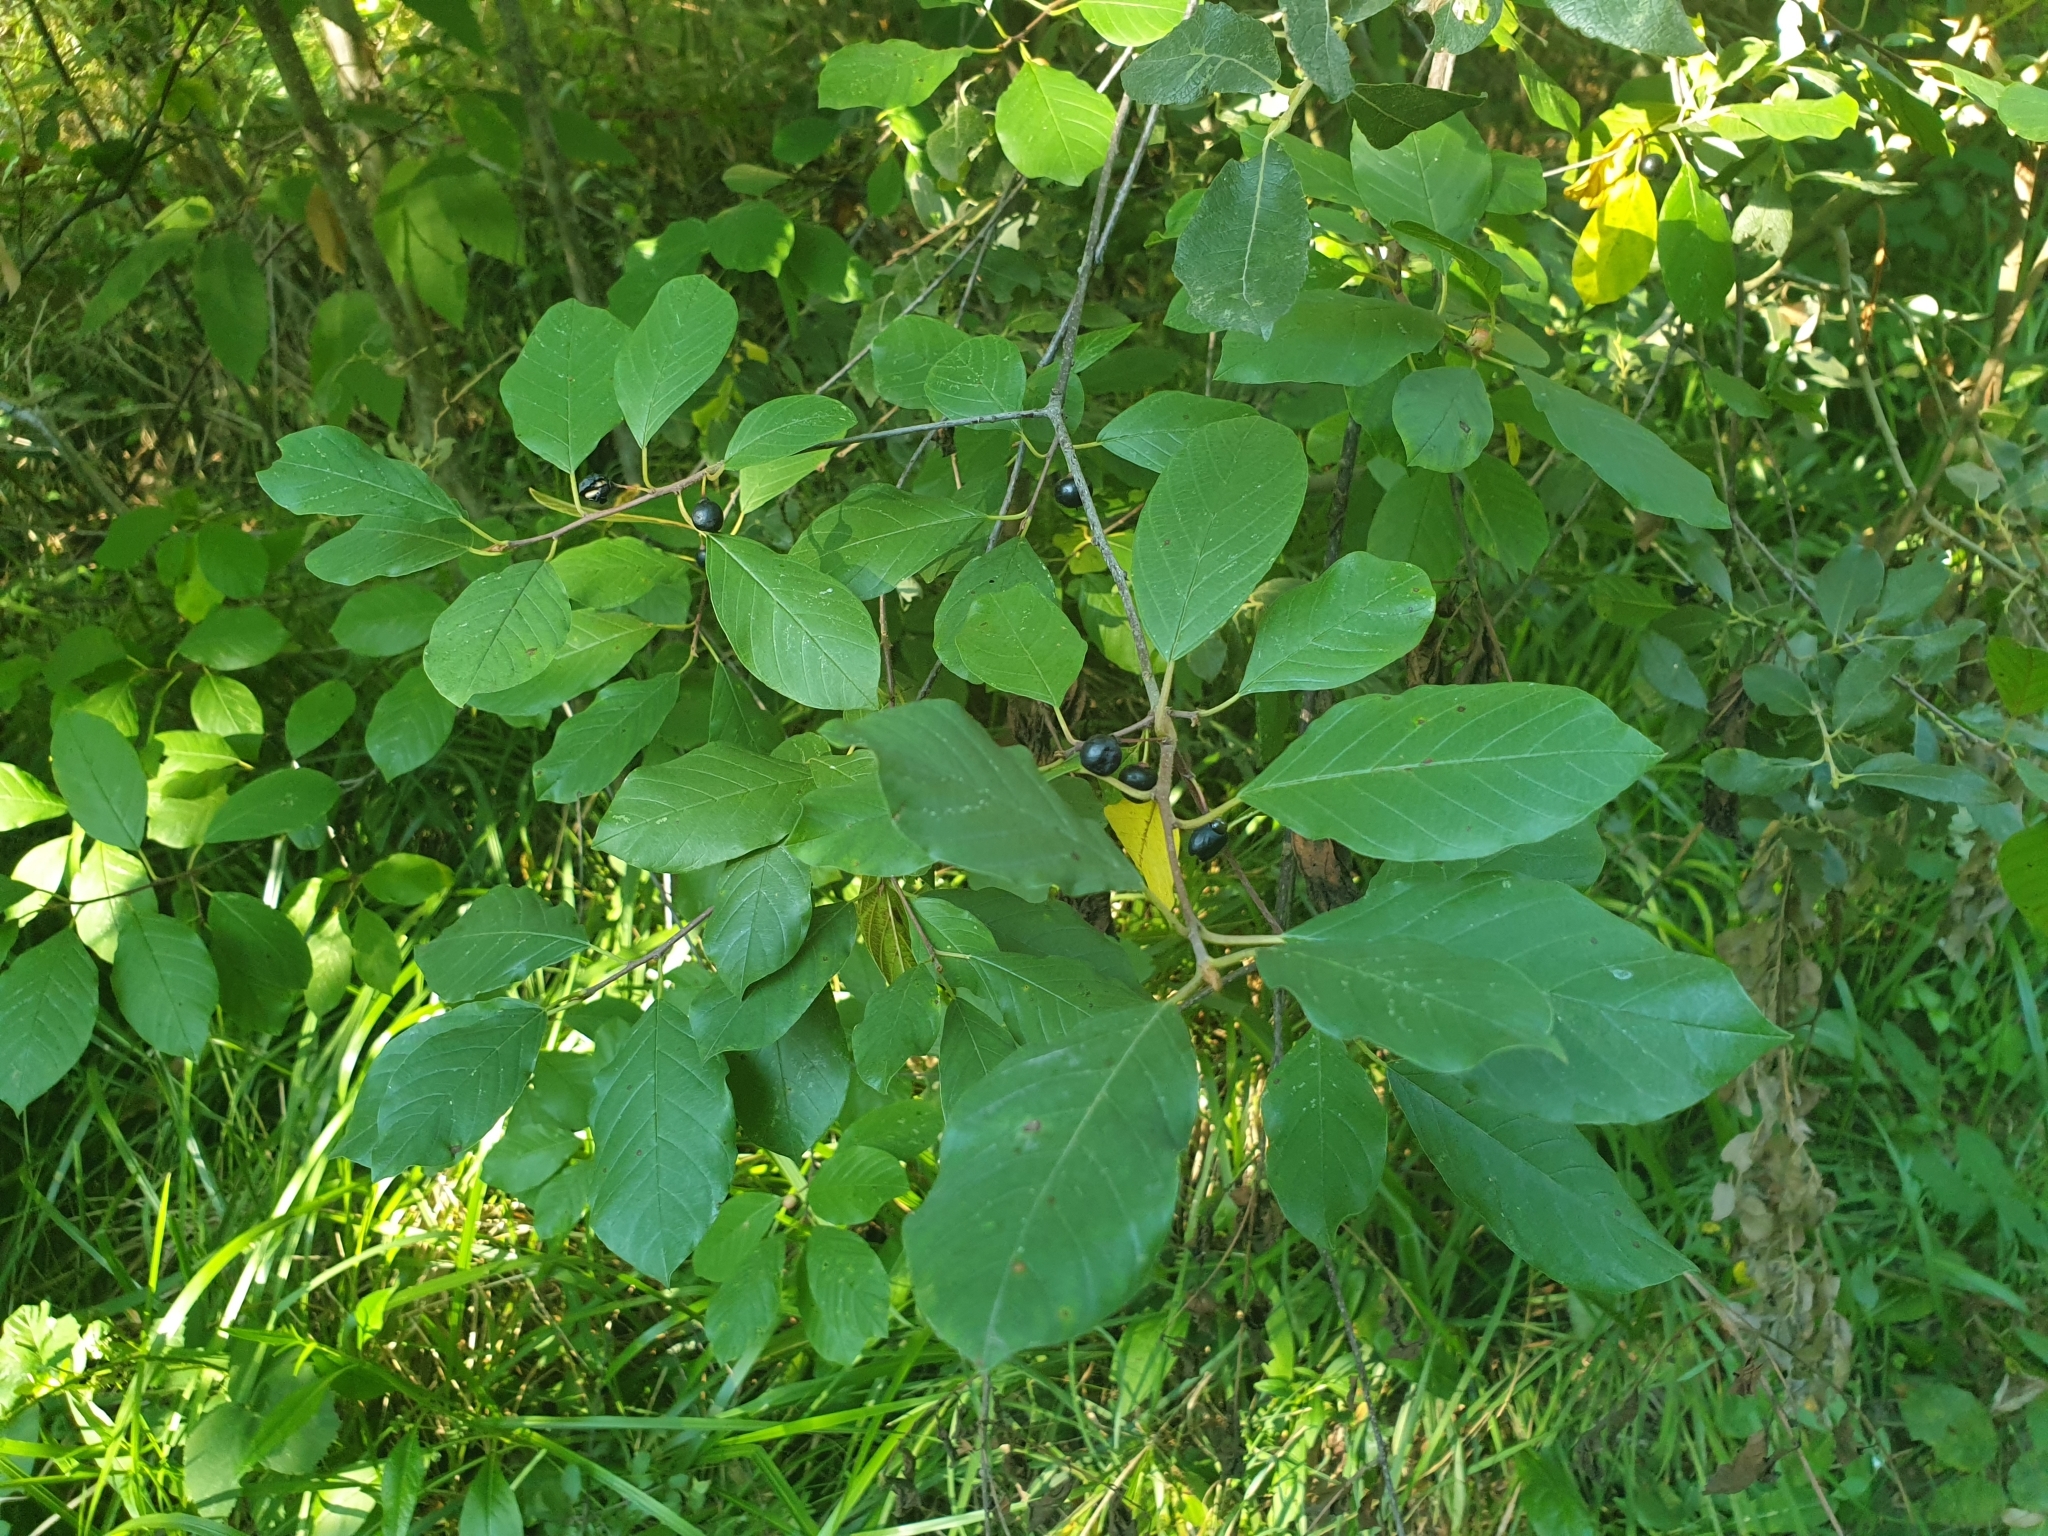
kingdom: Plantae
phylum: Tracheophyta
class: Magnoliopsida
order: Rosales
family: Rhamnaceae
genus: Frangula
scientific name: Frangula alnus
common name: Alder buckthorn
